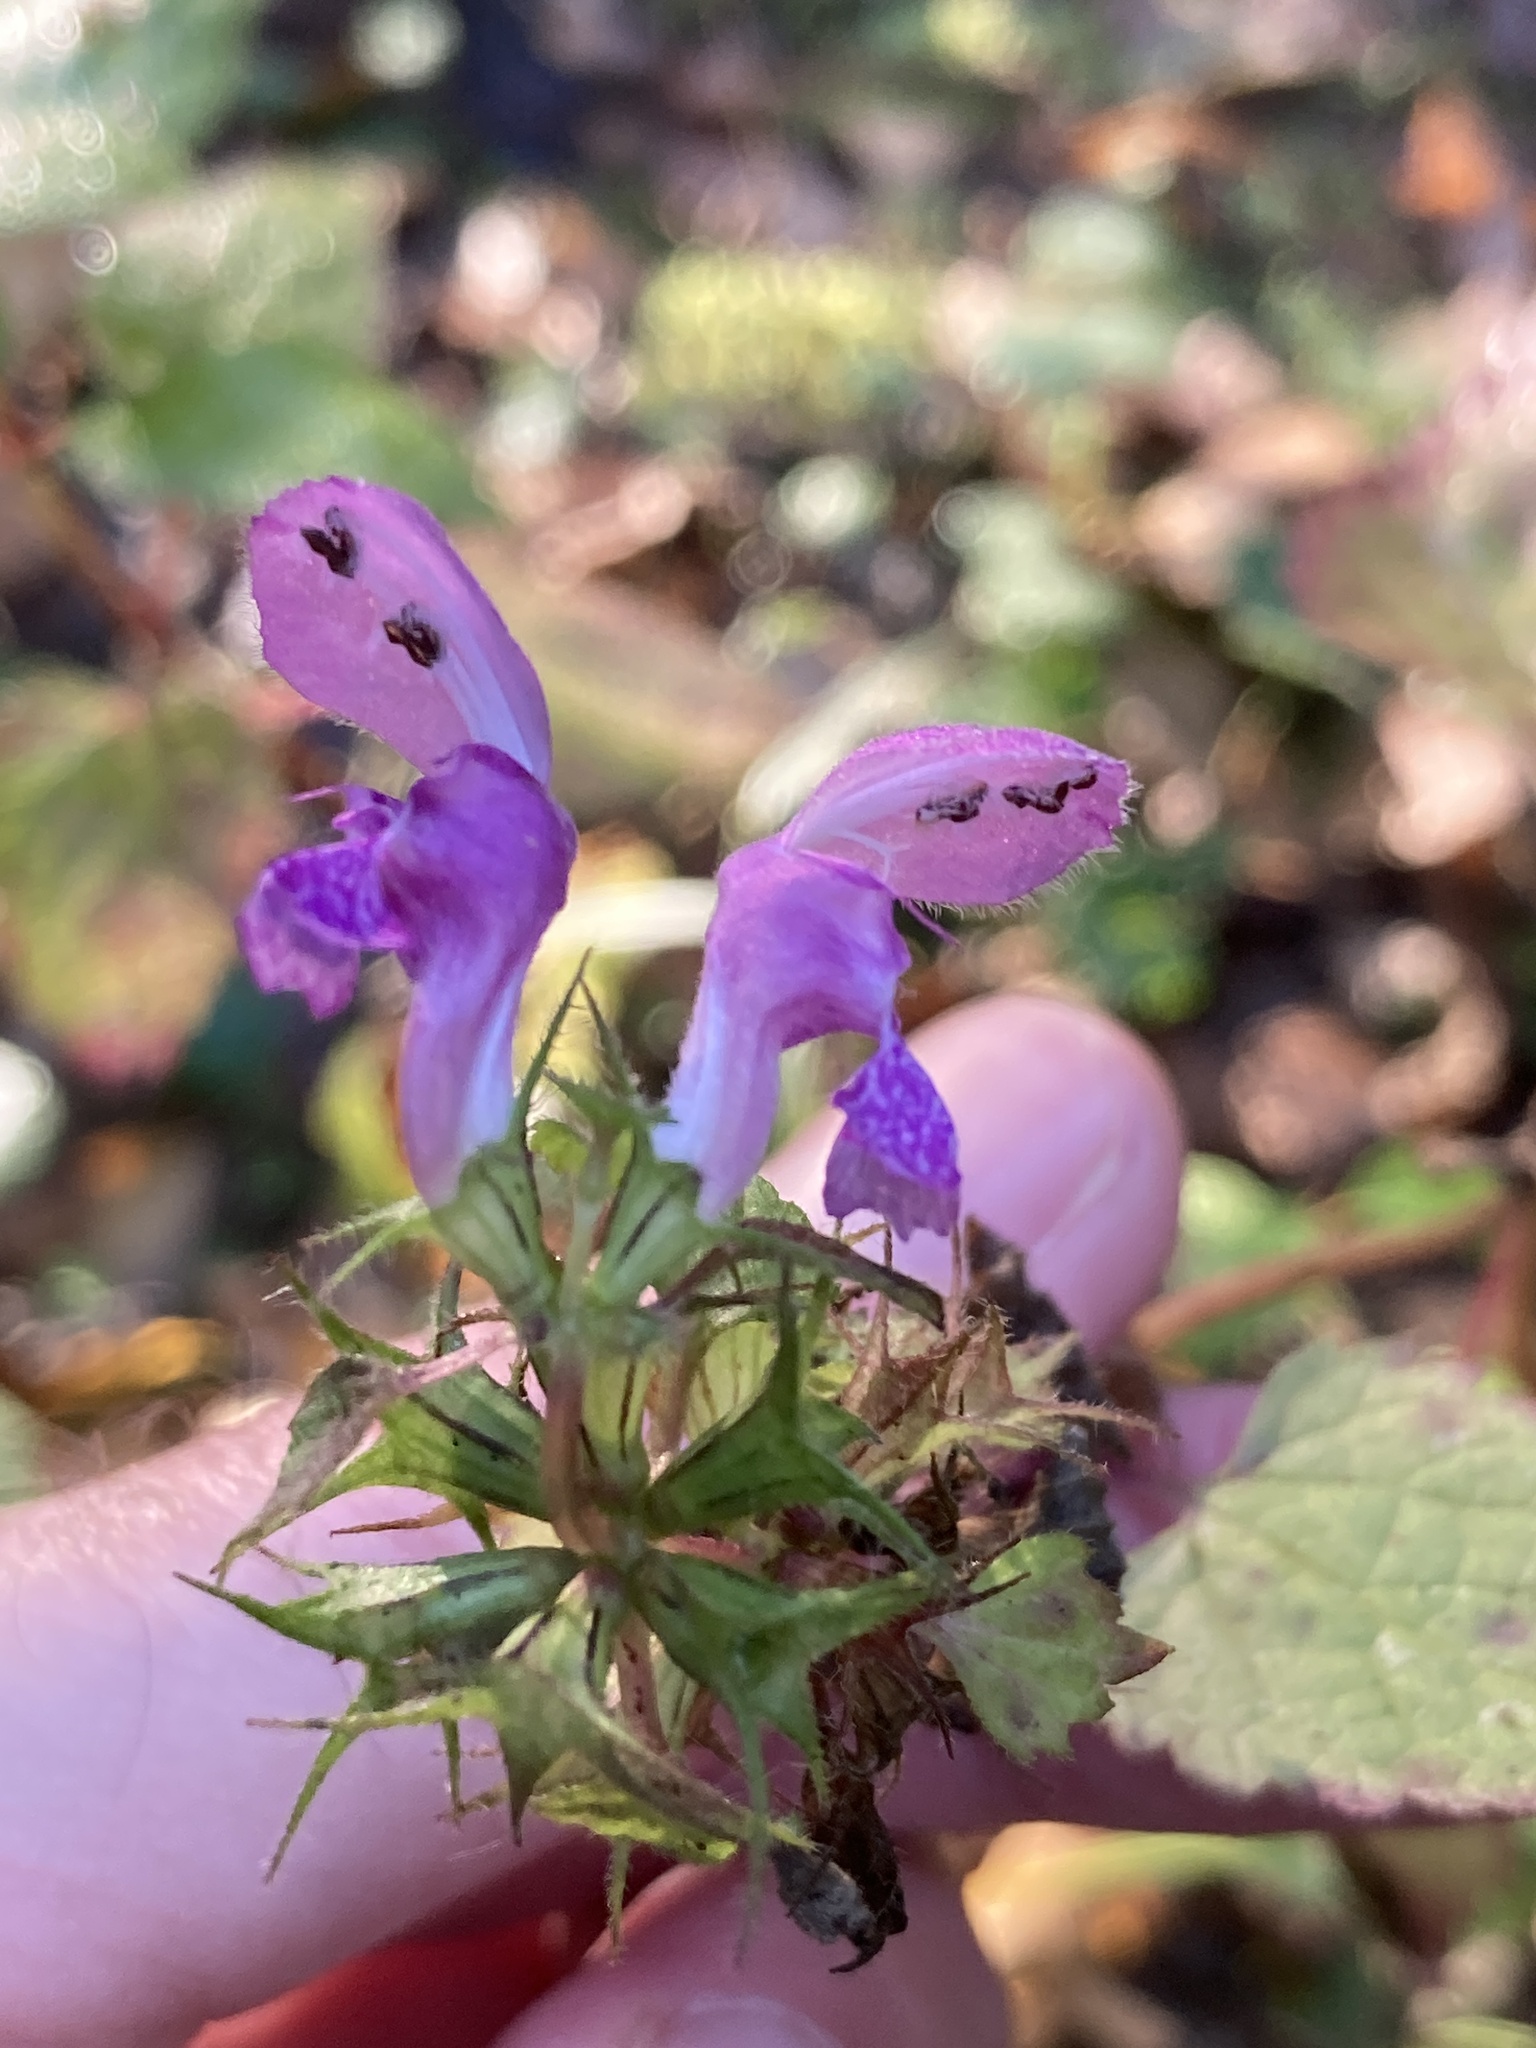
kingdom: Plantae
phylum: Tracheophyta
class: Magnoliopsida
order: Lamiales
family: Lamiaceae
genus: Lamium
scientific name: Lamium maculatum
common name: Spotted dead-nettle
